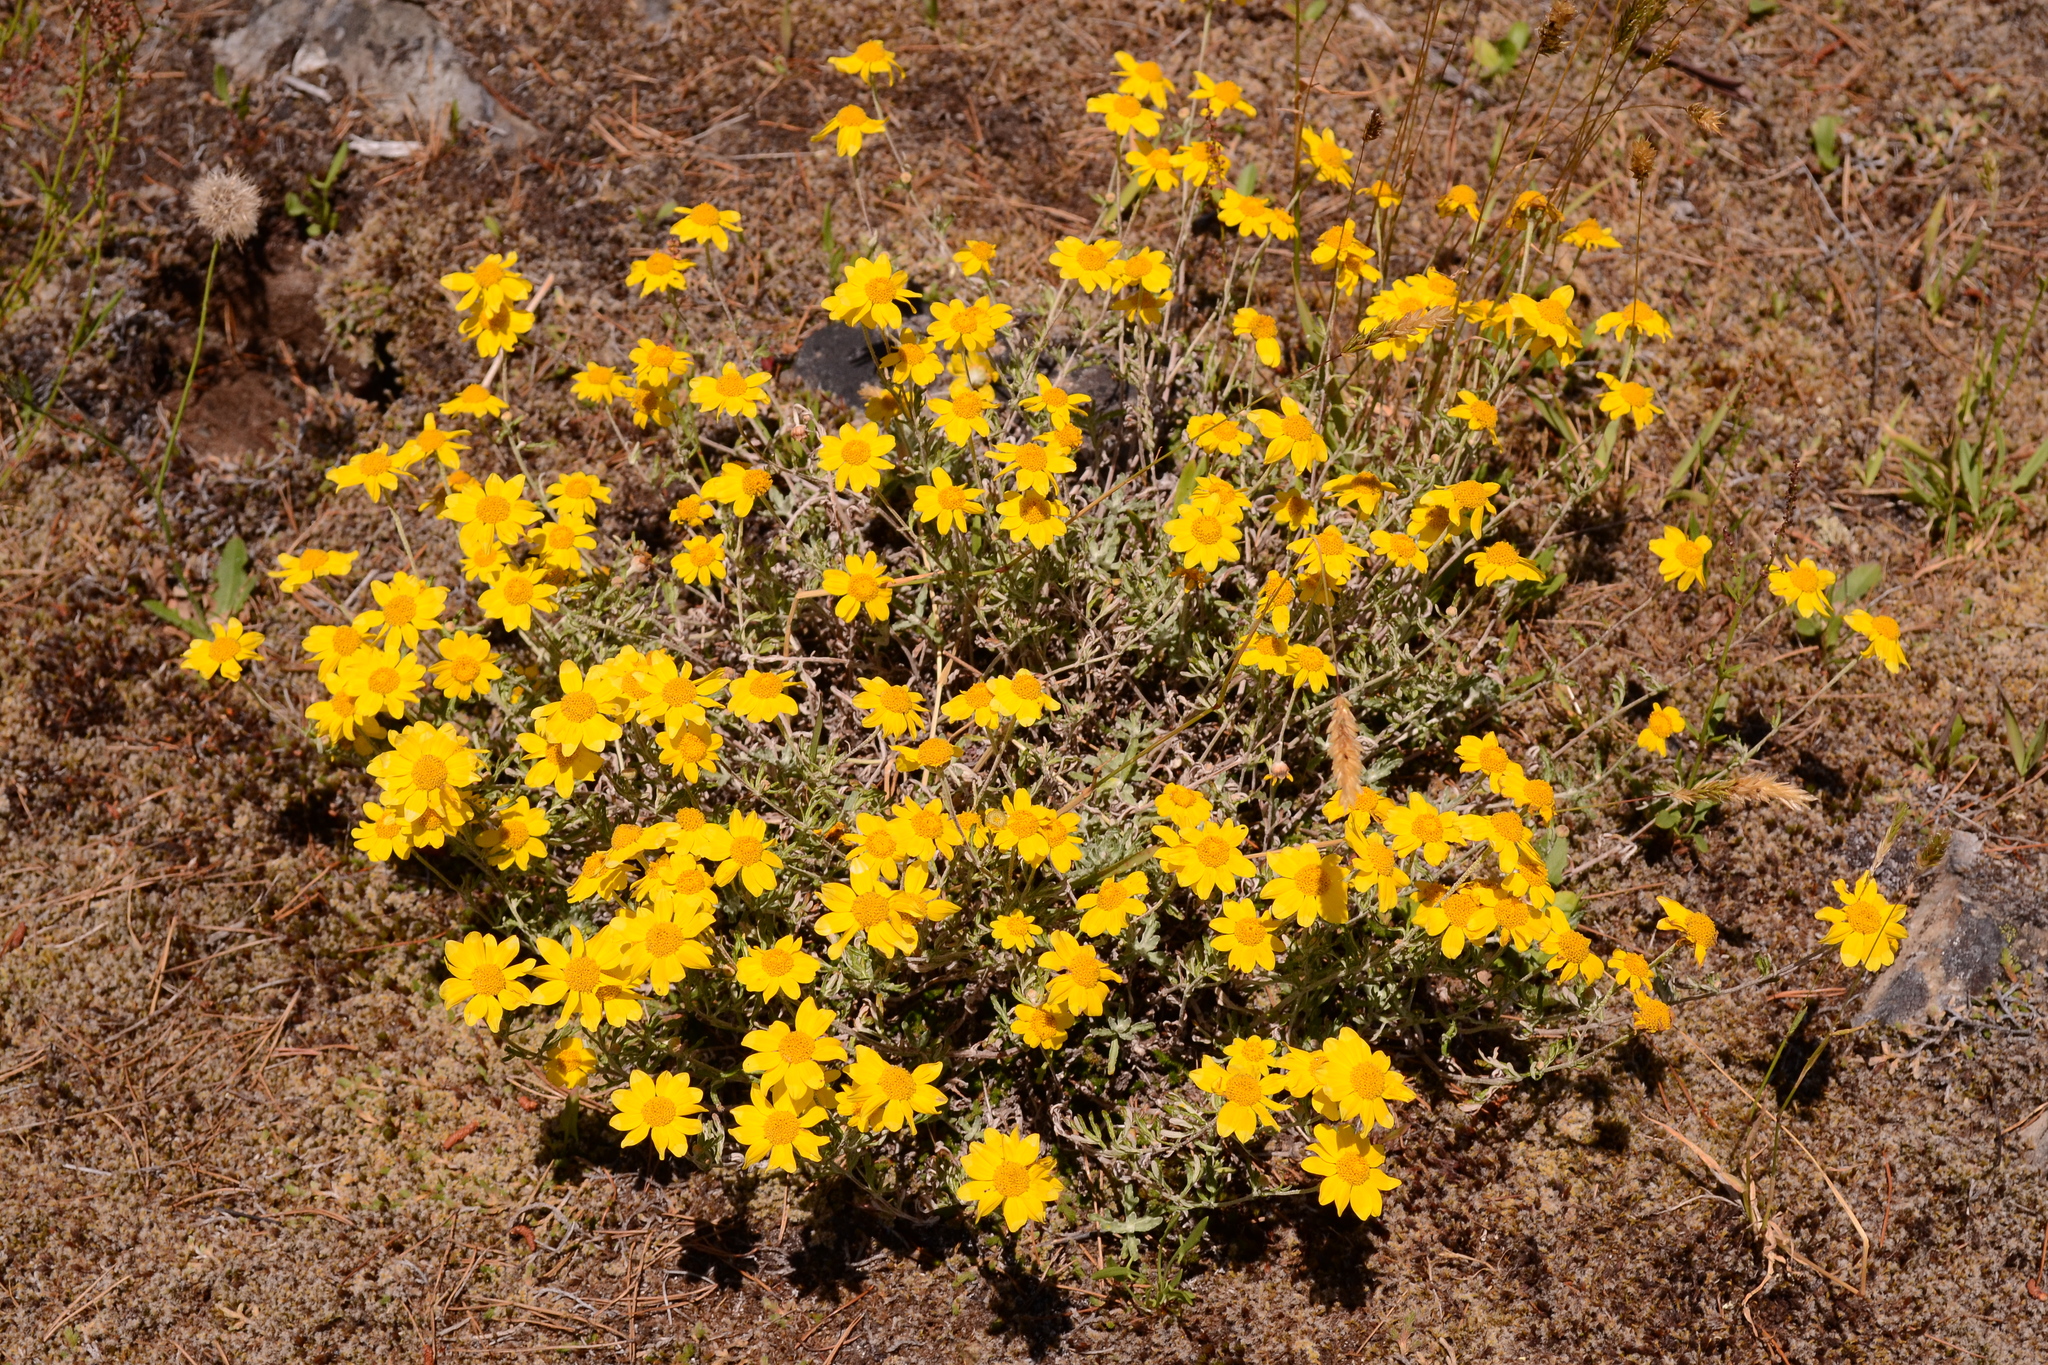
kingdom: Plantae
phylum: Tracheophyta
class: Magnoliopsida
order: Asterales
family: Asteraceae
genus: Eriophyllum
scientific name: Eriophyllum lanatum
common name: Common woolly-sunflower
